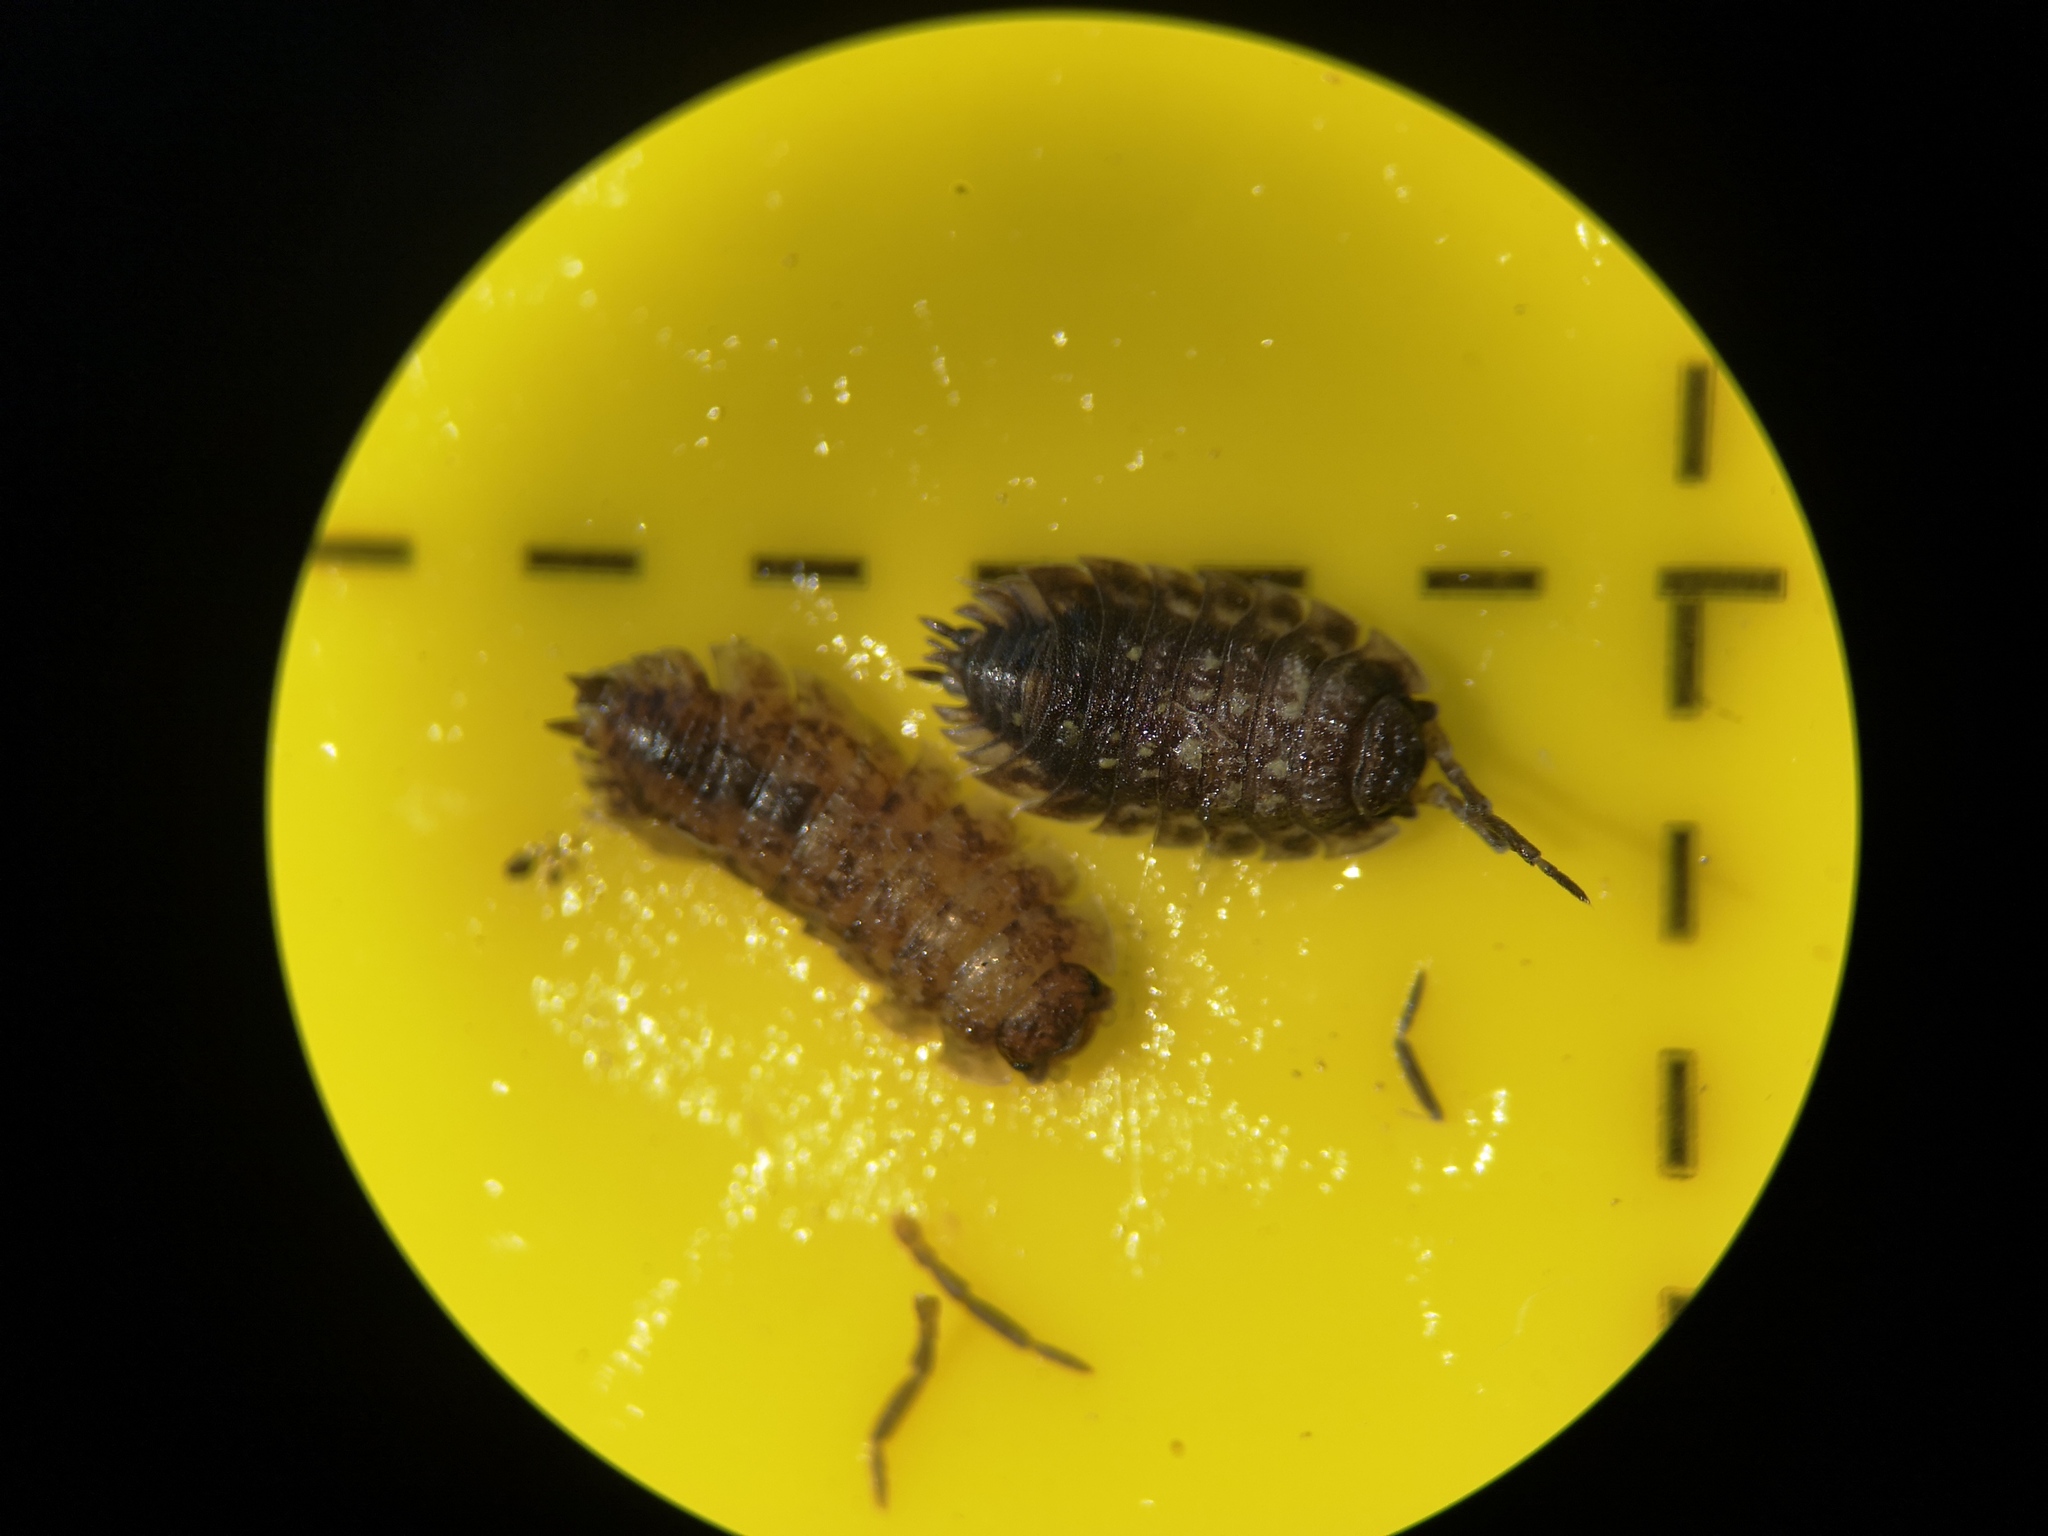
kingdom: Animalia
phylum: Arthropoda
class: Malacostraca
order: Isopoda
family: Oniscidae
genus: Oniscus
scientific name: Oniscus asellus
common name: Common shiny woodlouse
